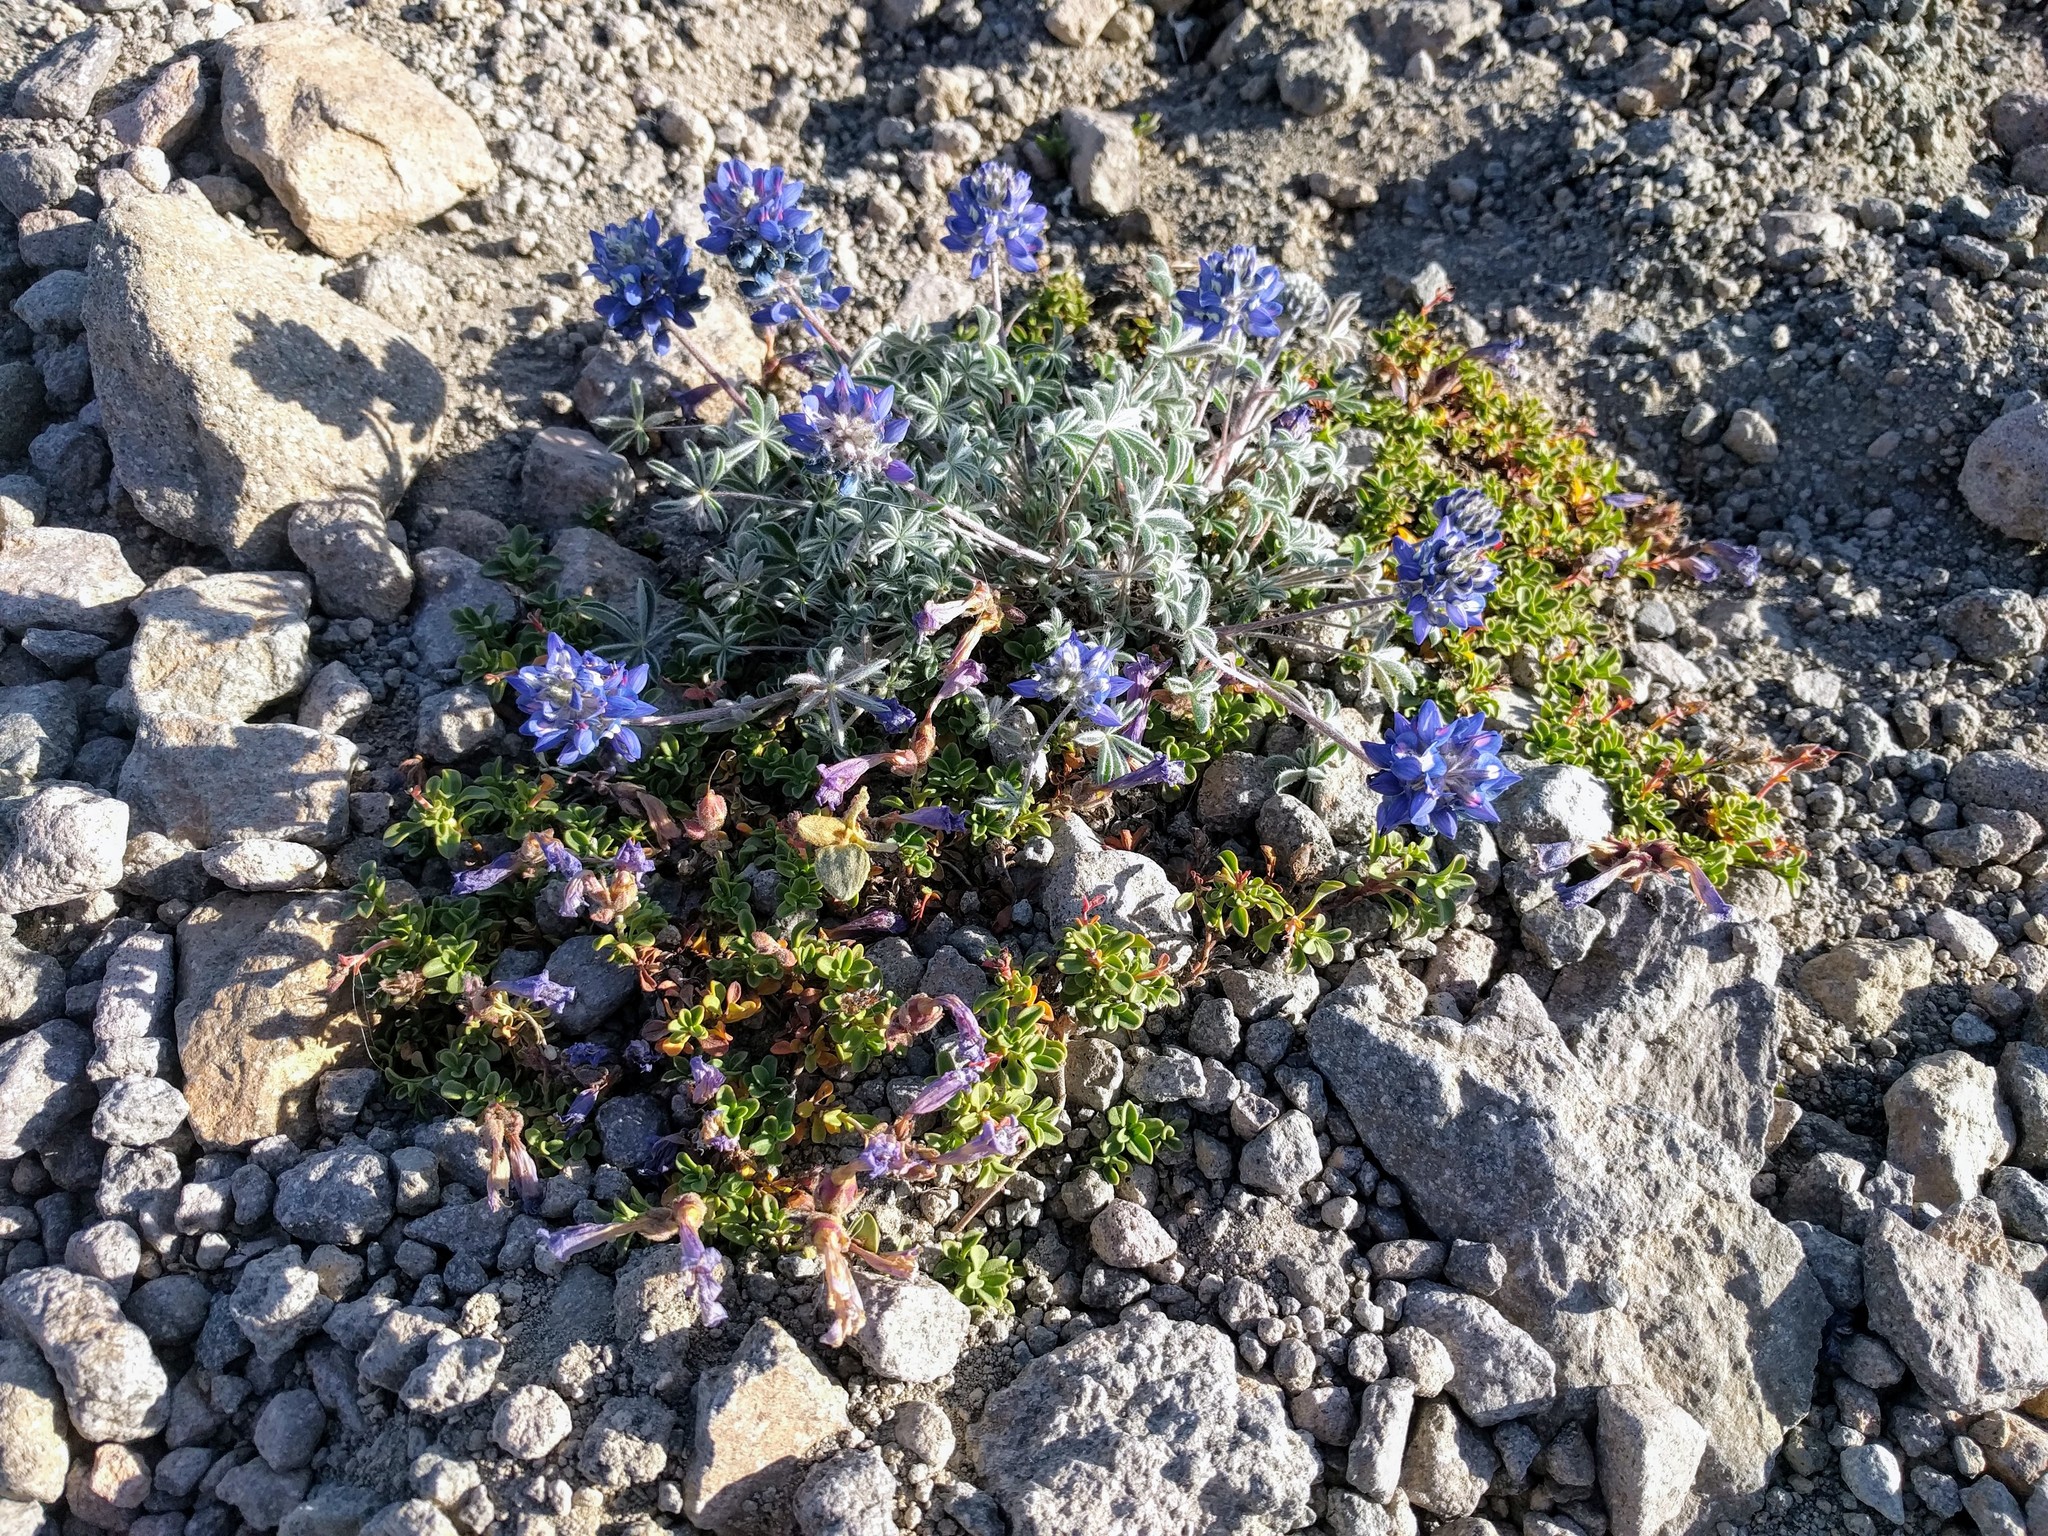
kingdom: Plantae
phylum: Tracheophyta
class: Magnoliopsida
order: Fabales
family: Fabaceae
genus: Lupinus
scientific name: Lupinus sellulus
